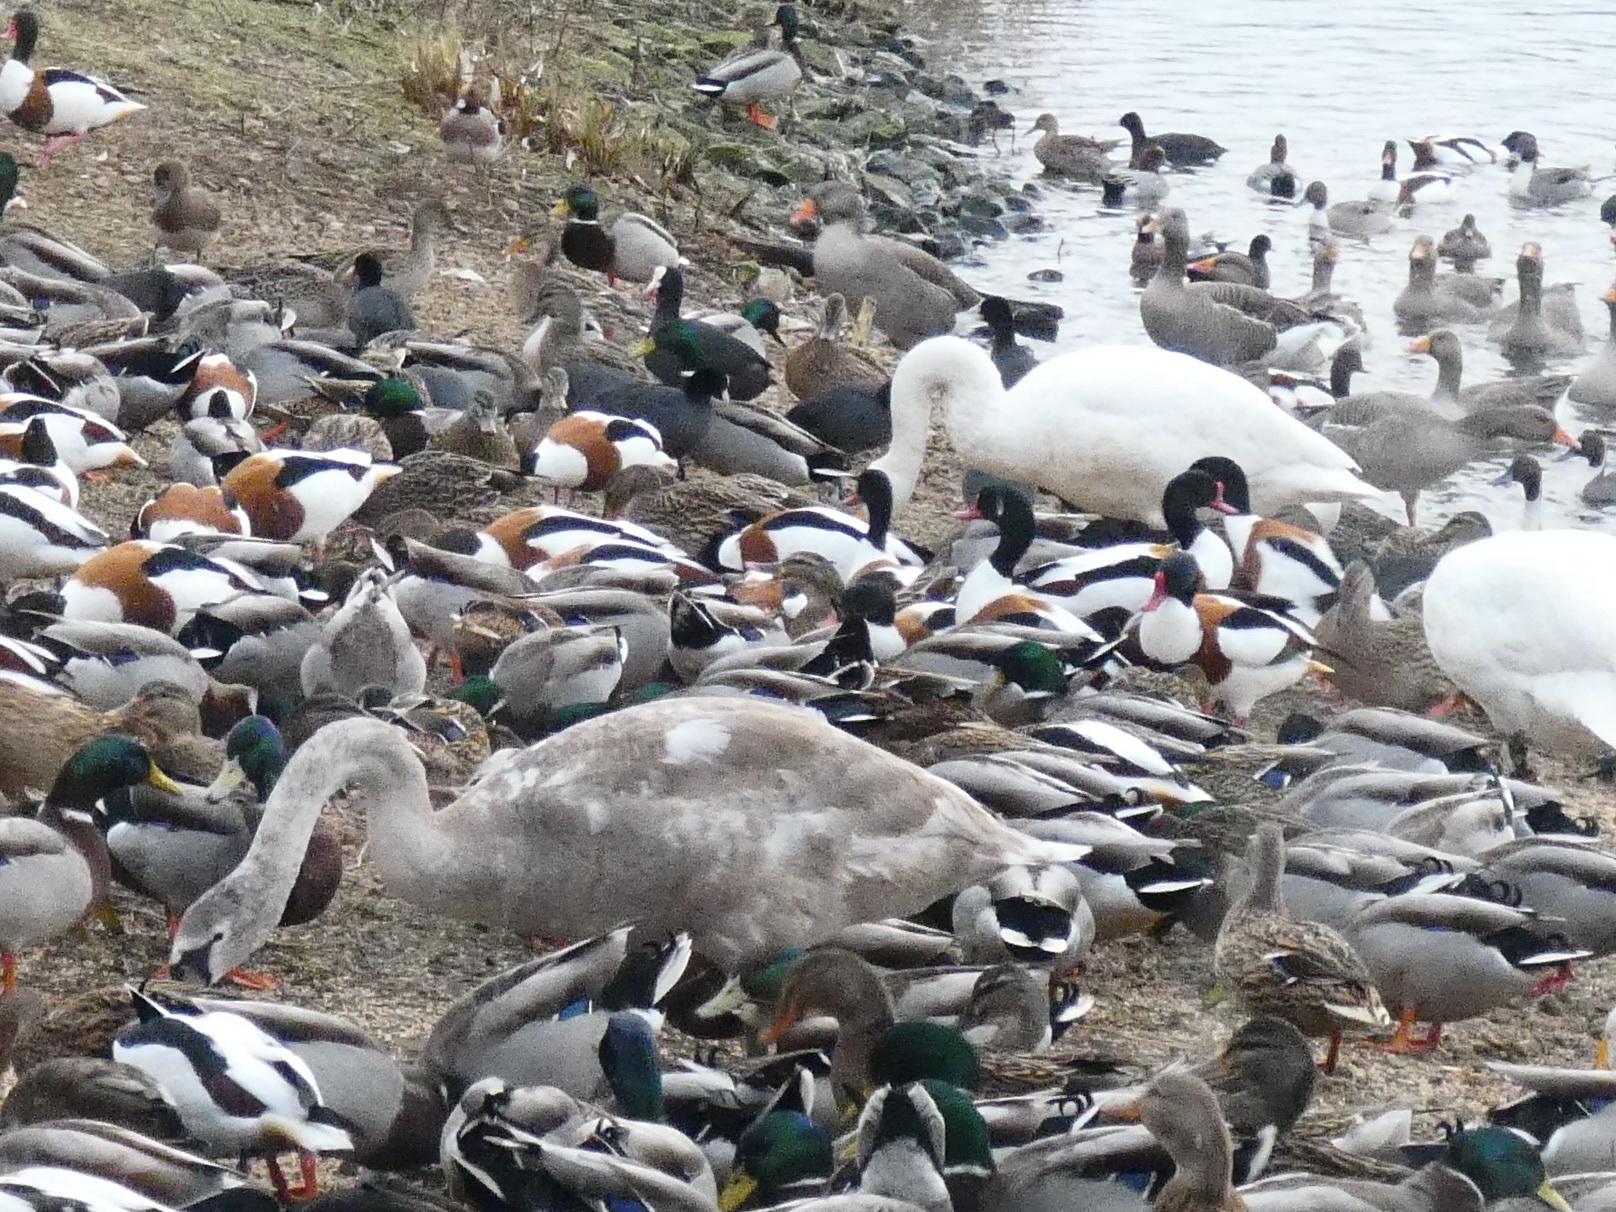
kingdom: Animalia
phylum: Chordata
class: Aves
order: Anseriformes
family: Anatidae
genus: Tadorna
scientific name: Tadorna tadorna
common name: Common shelduck
